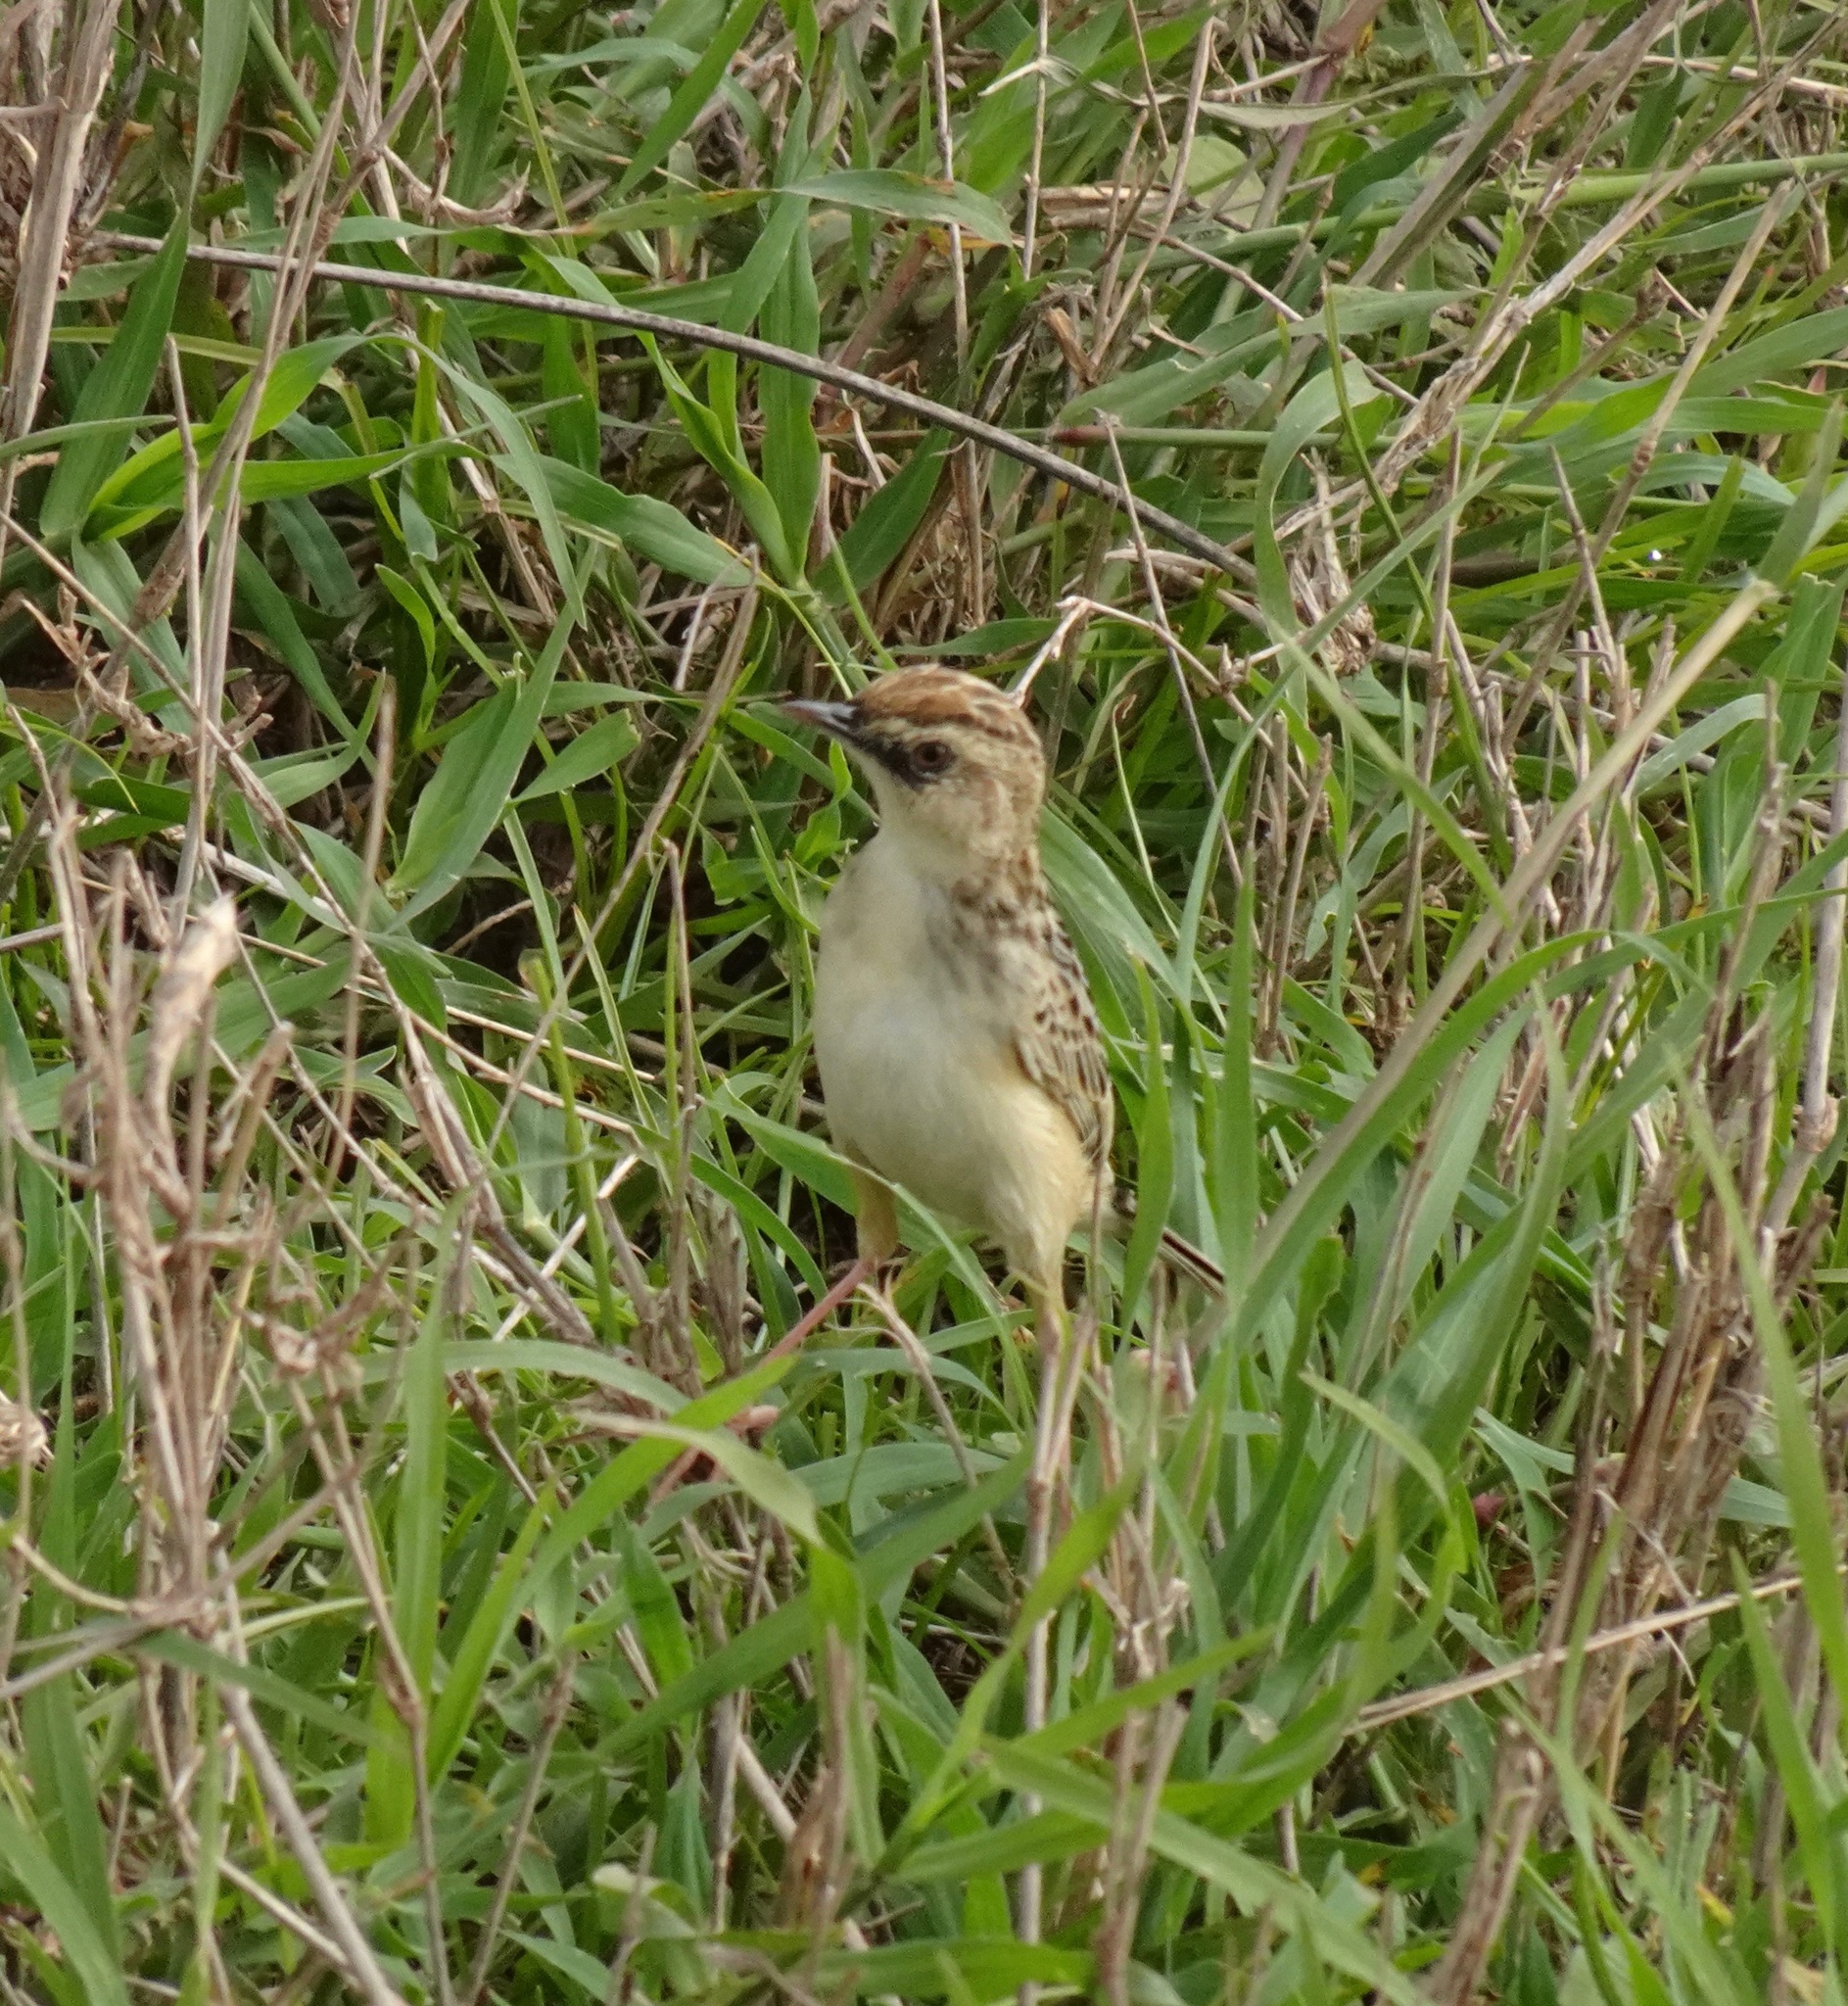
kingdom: Animalia
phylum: Chordata
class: Aves
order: Passeriformes
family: Cisticolidae
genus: Cisticola
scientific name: Cisticola brunnescens
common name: Pectoral-patch cisticola
